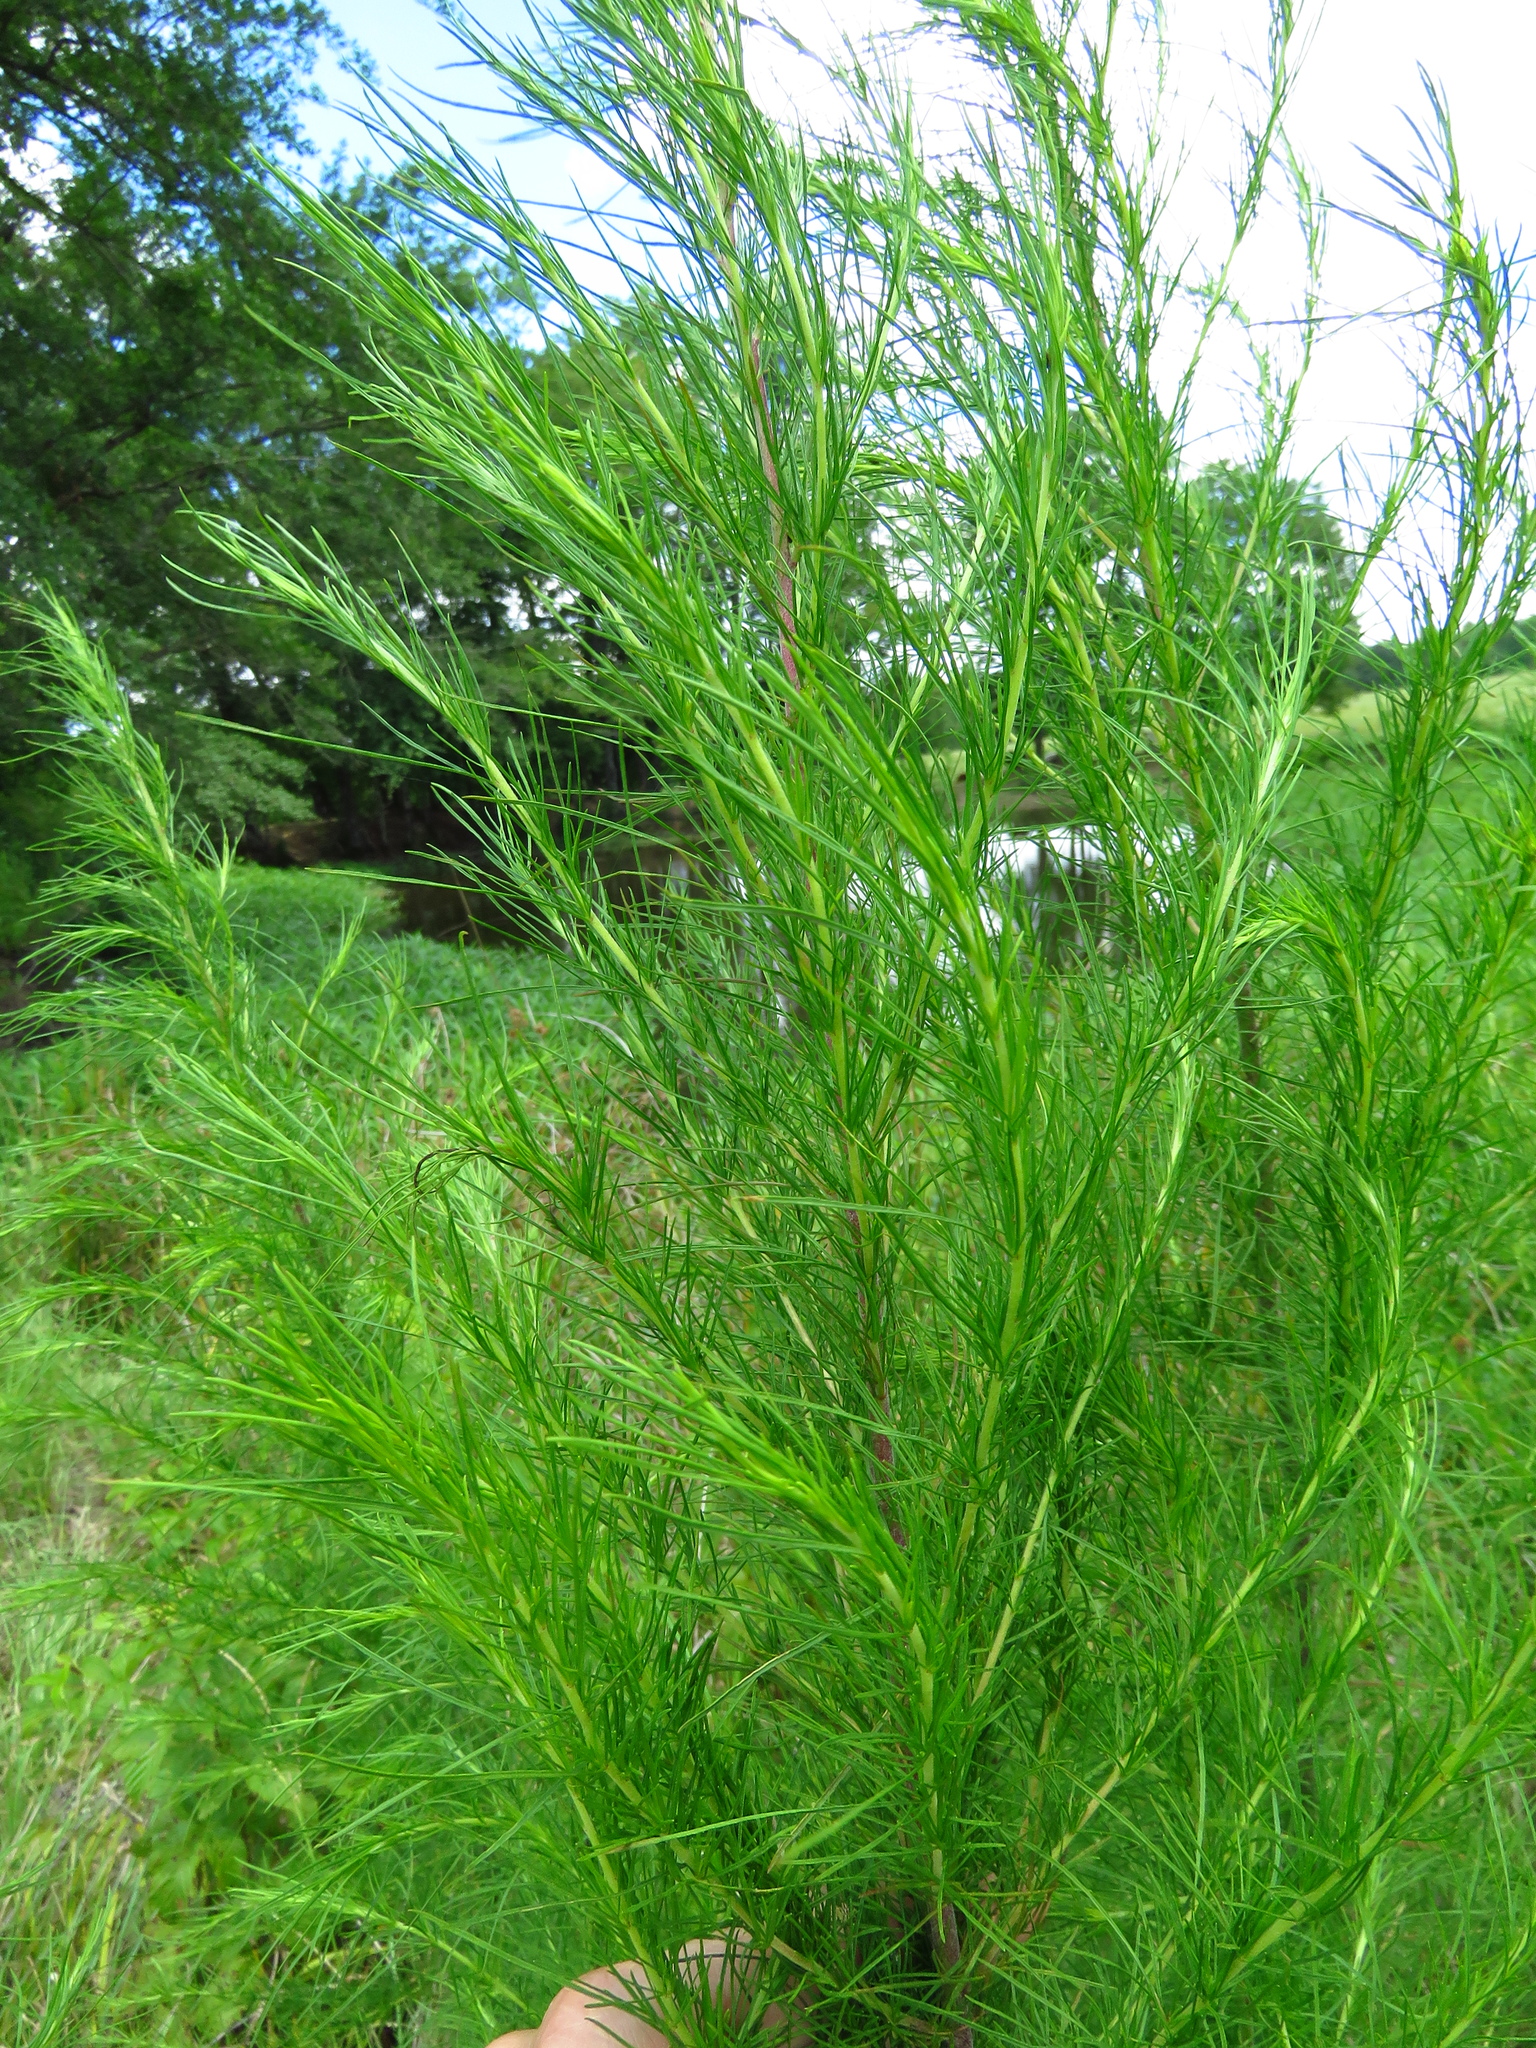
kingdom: Plantae
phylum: Tracheophyta
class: Magnoliopsida
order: Asterales
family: Asteraceae
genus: Eupatorium
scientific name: Eupatorium capillifolium
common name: Dog-fennel
